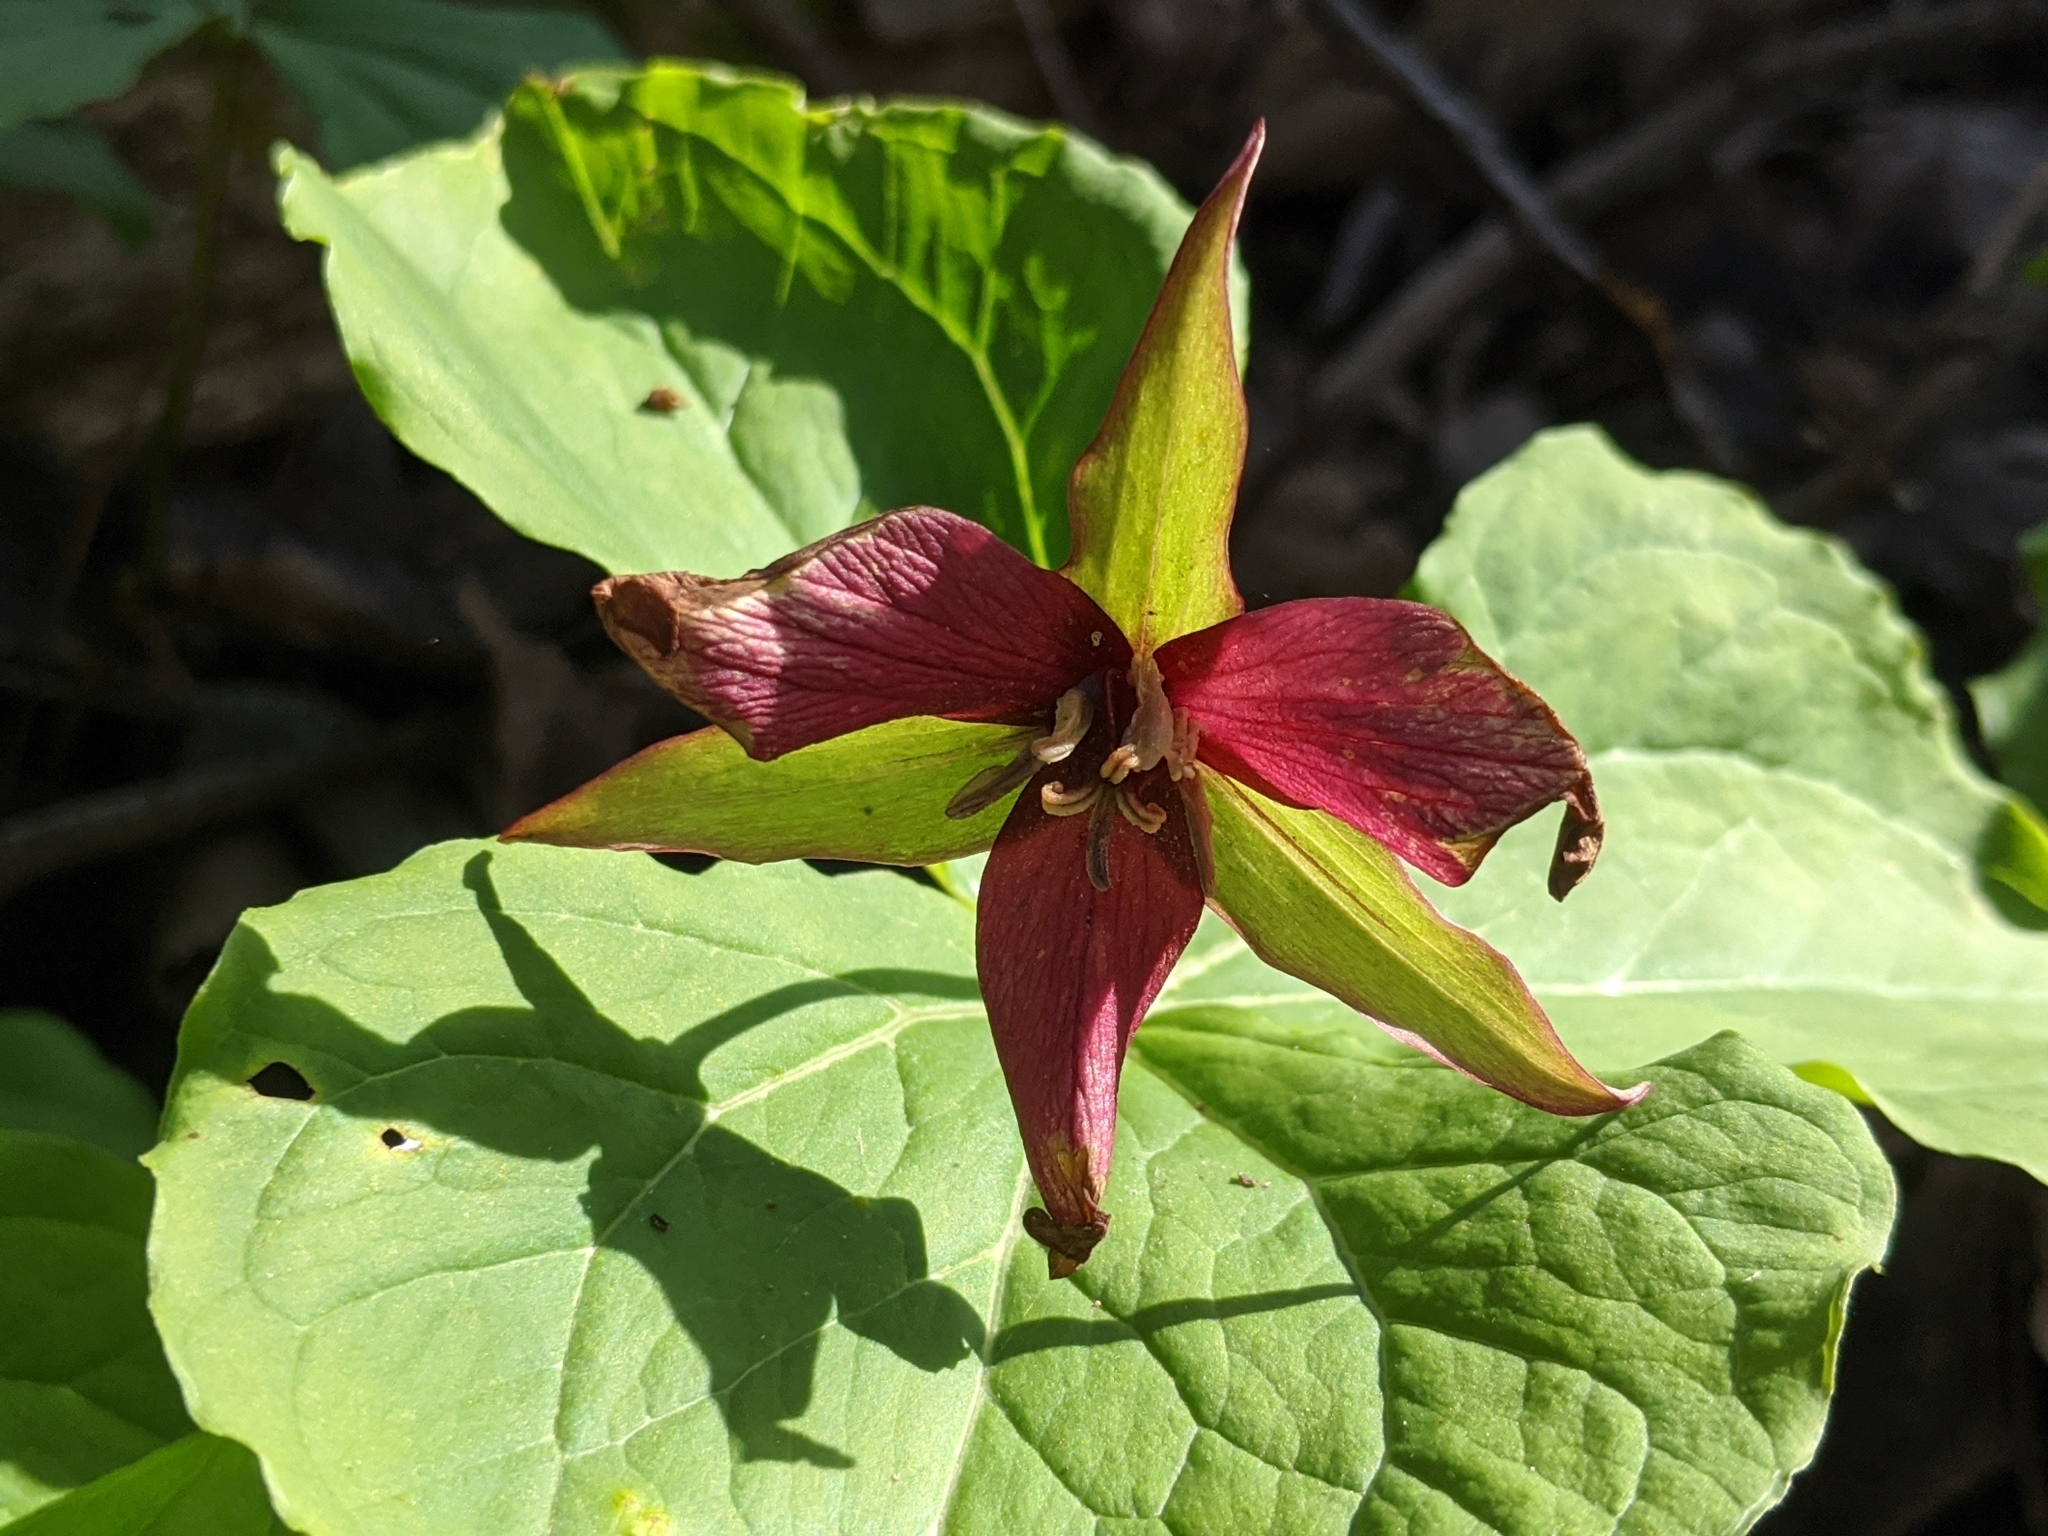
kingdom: Plantae
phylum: Tracheophyta
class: Liliopsida
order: Liliales
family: Melanthiaceae
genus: Trillium
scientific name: Trillium erectum
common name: Purple trillium
